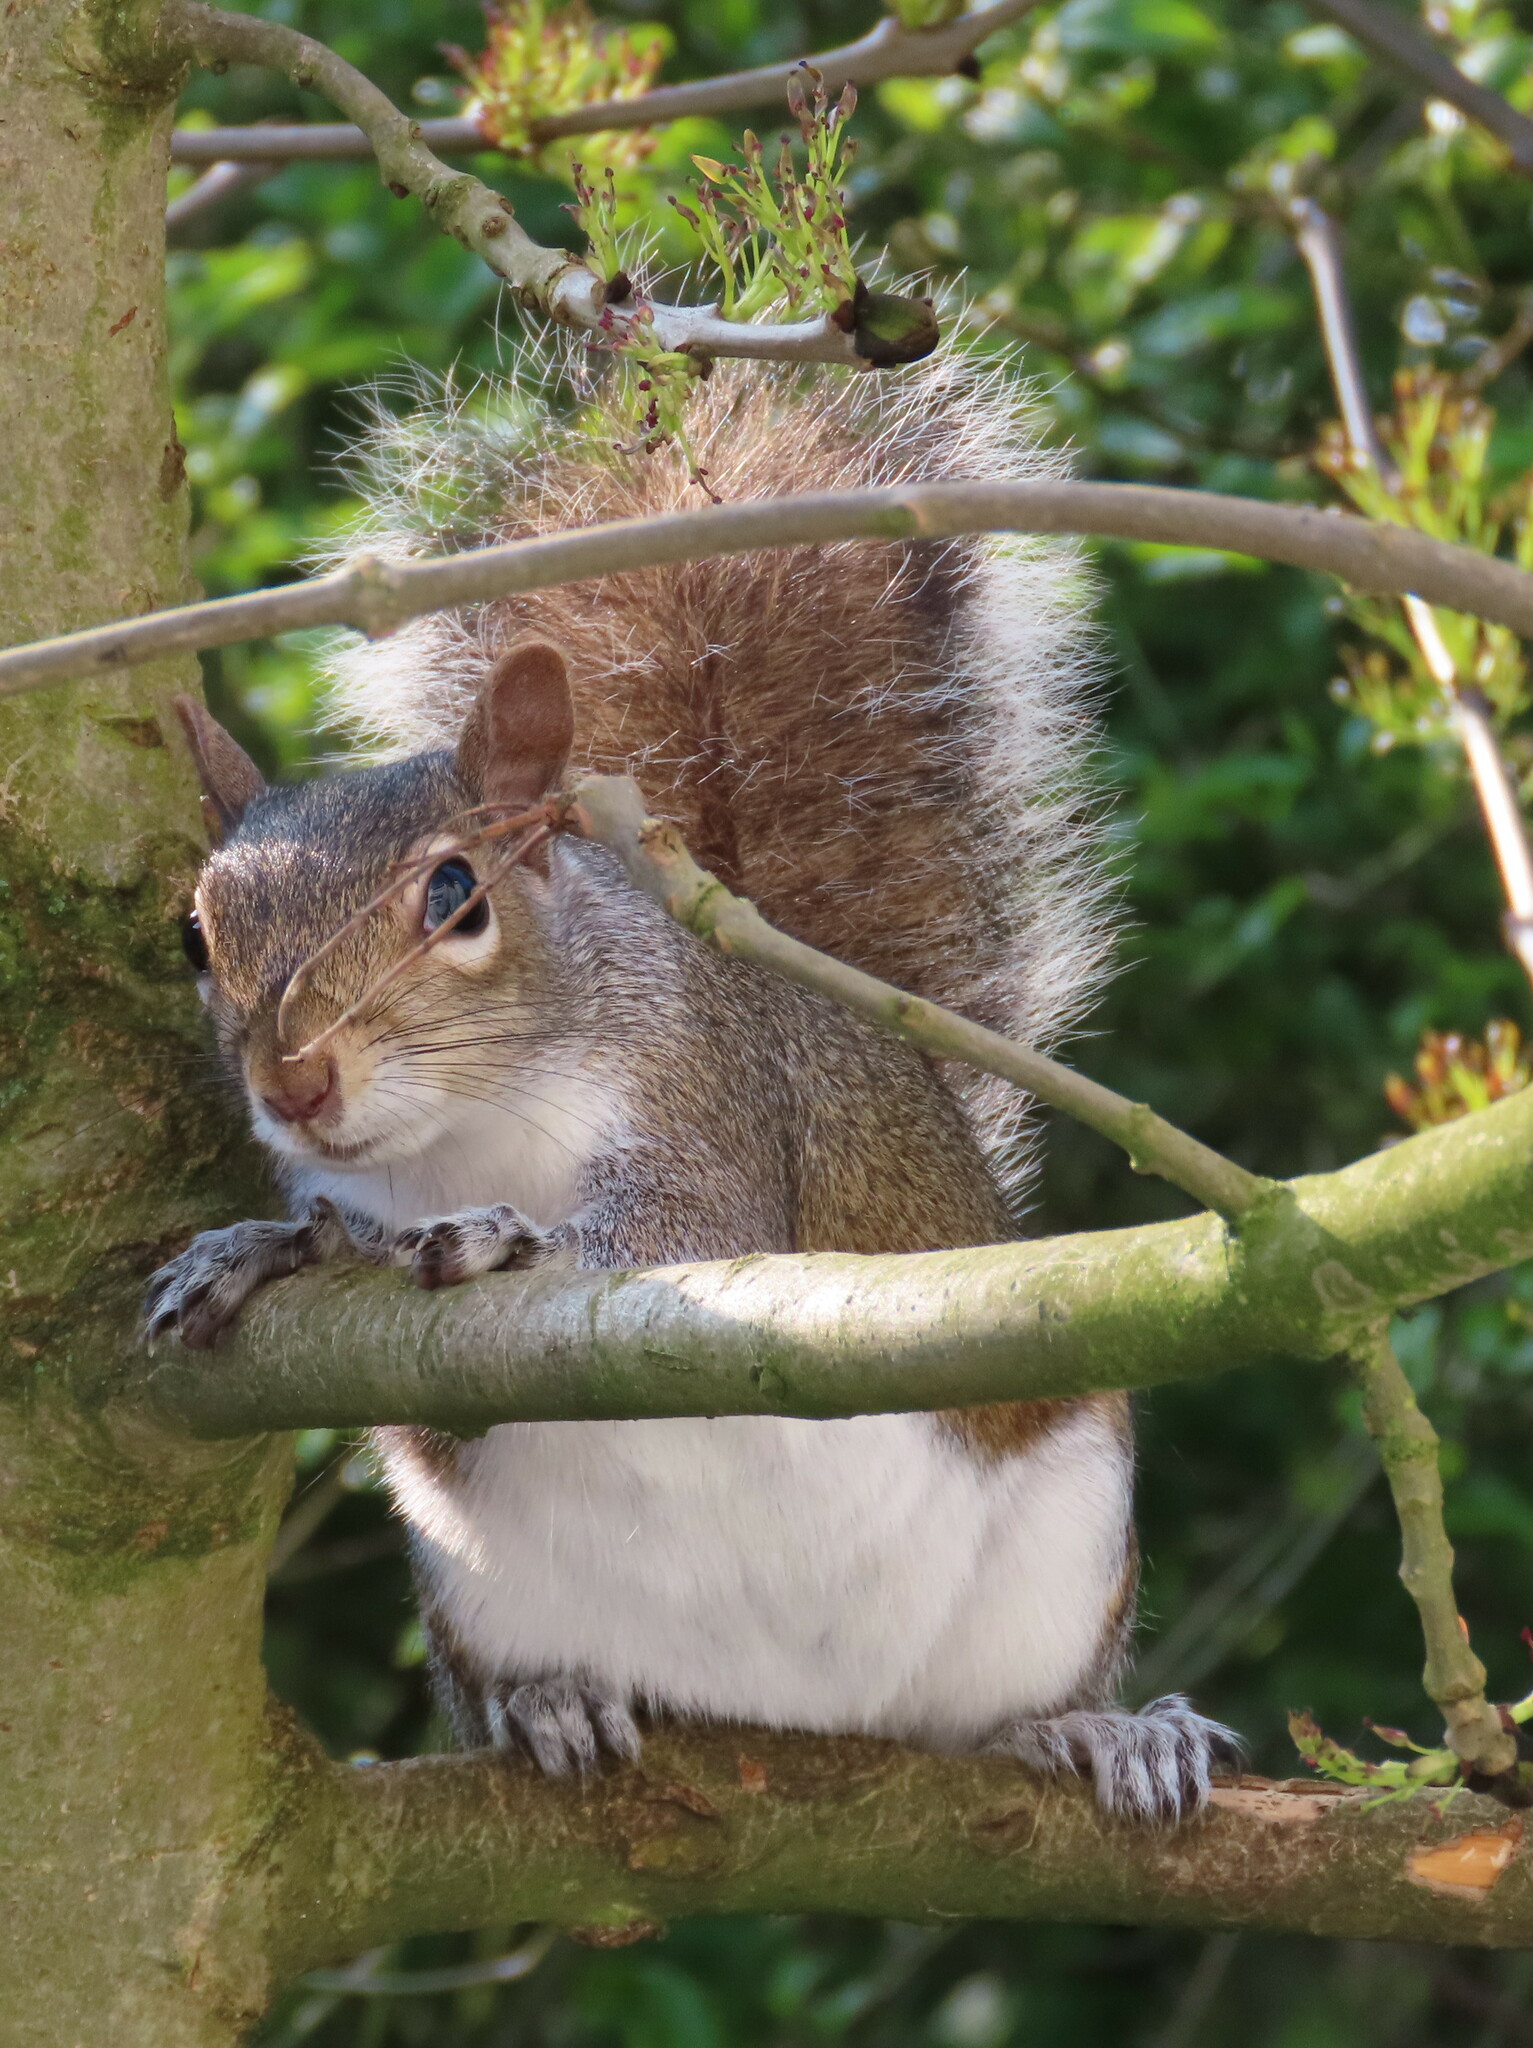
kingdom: Animalia
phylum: Chordata
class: Mammalia
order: Rodentia
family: Sciuridae
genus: Sciurus
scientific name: Sciurus carolinensis
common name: Eastern gray squirrel
